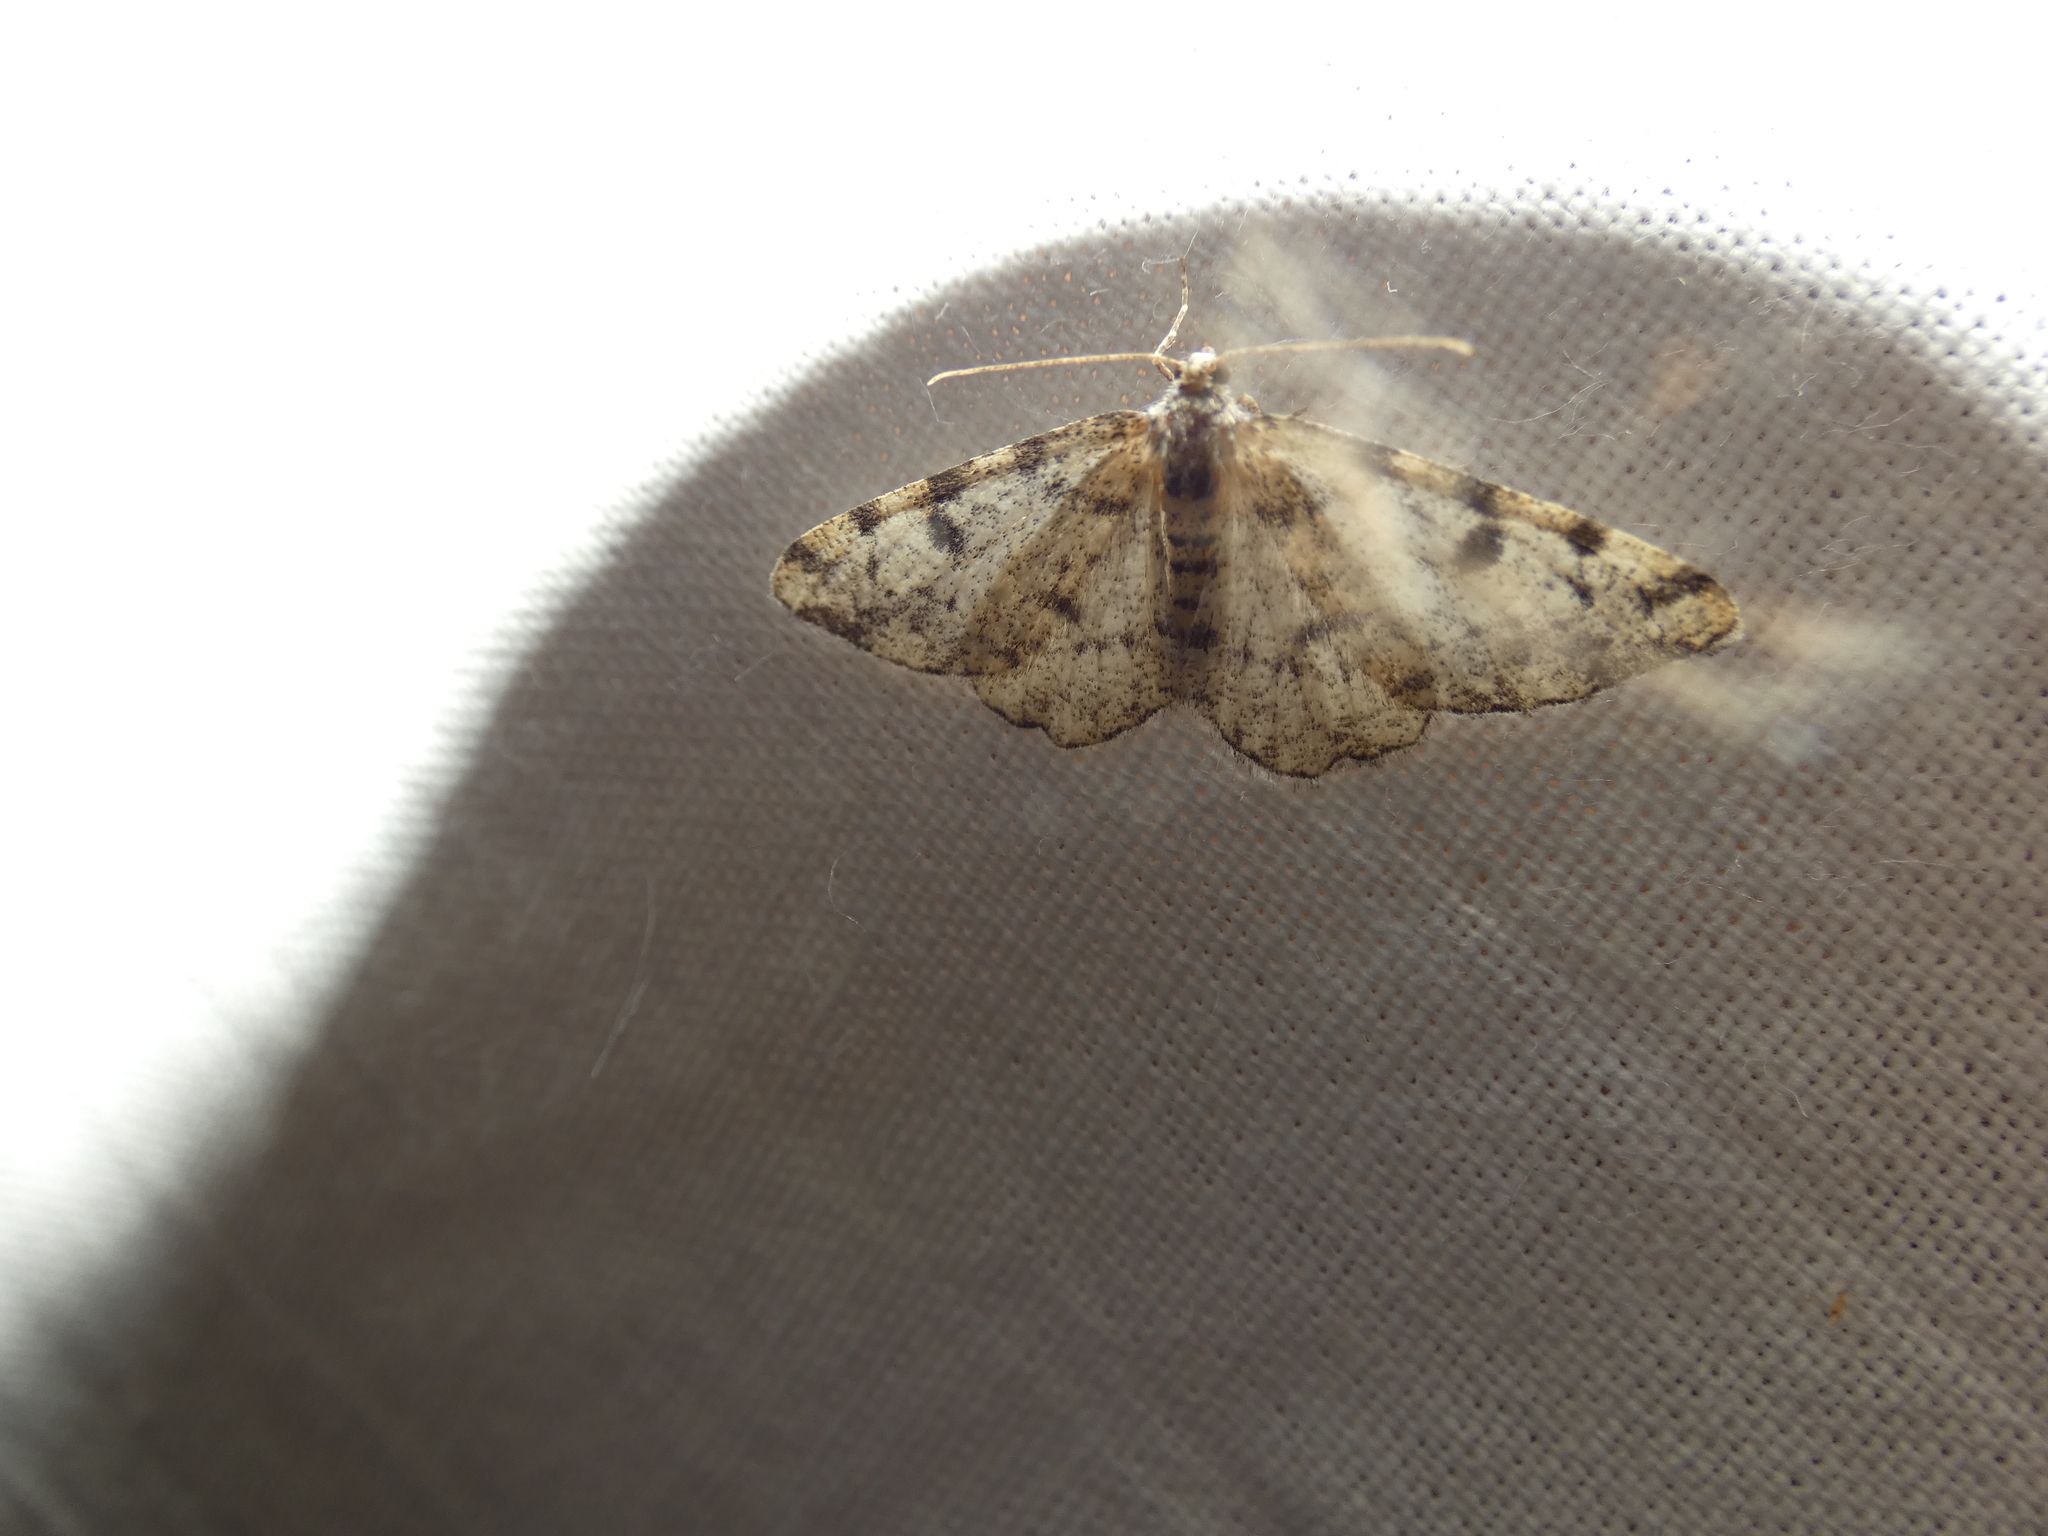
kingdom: Animalia
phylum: Arthropoda
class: Insecta
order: Lepidoptera
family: Geometridae
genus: Alcis
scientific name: Alcis jubata
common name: Dotted carpet
